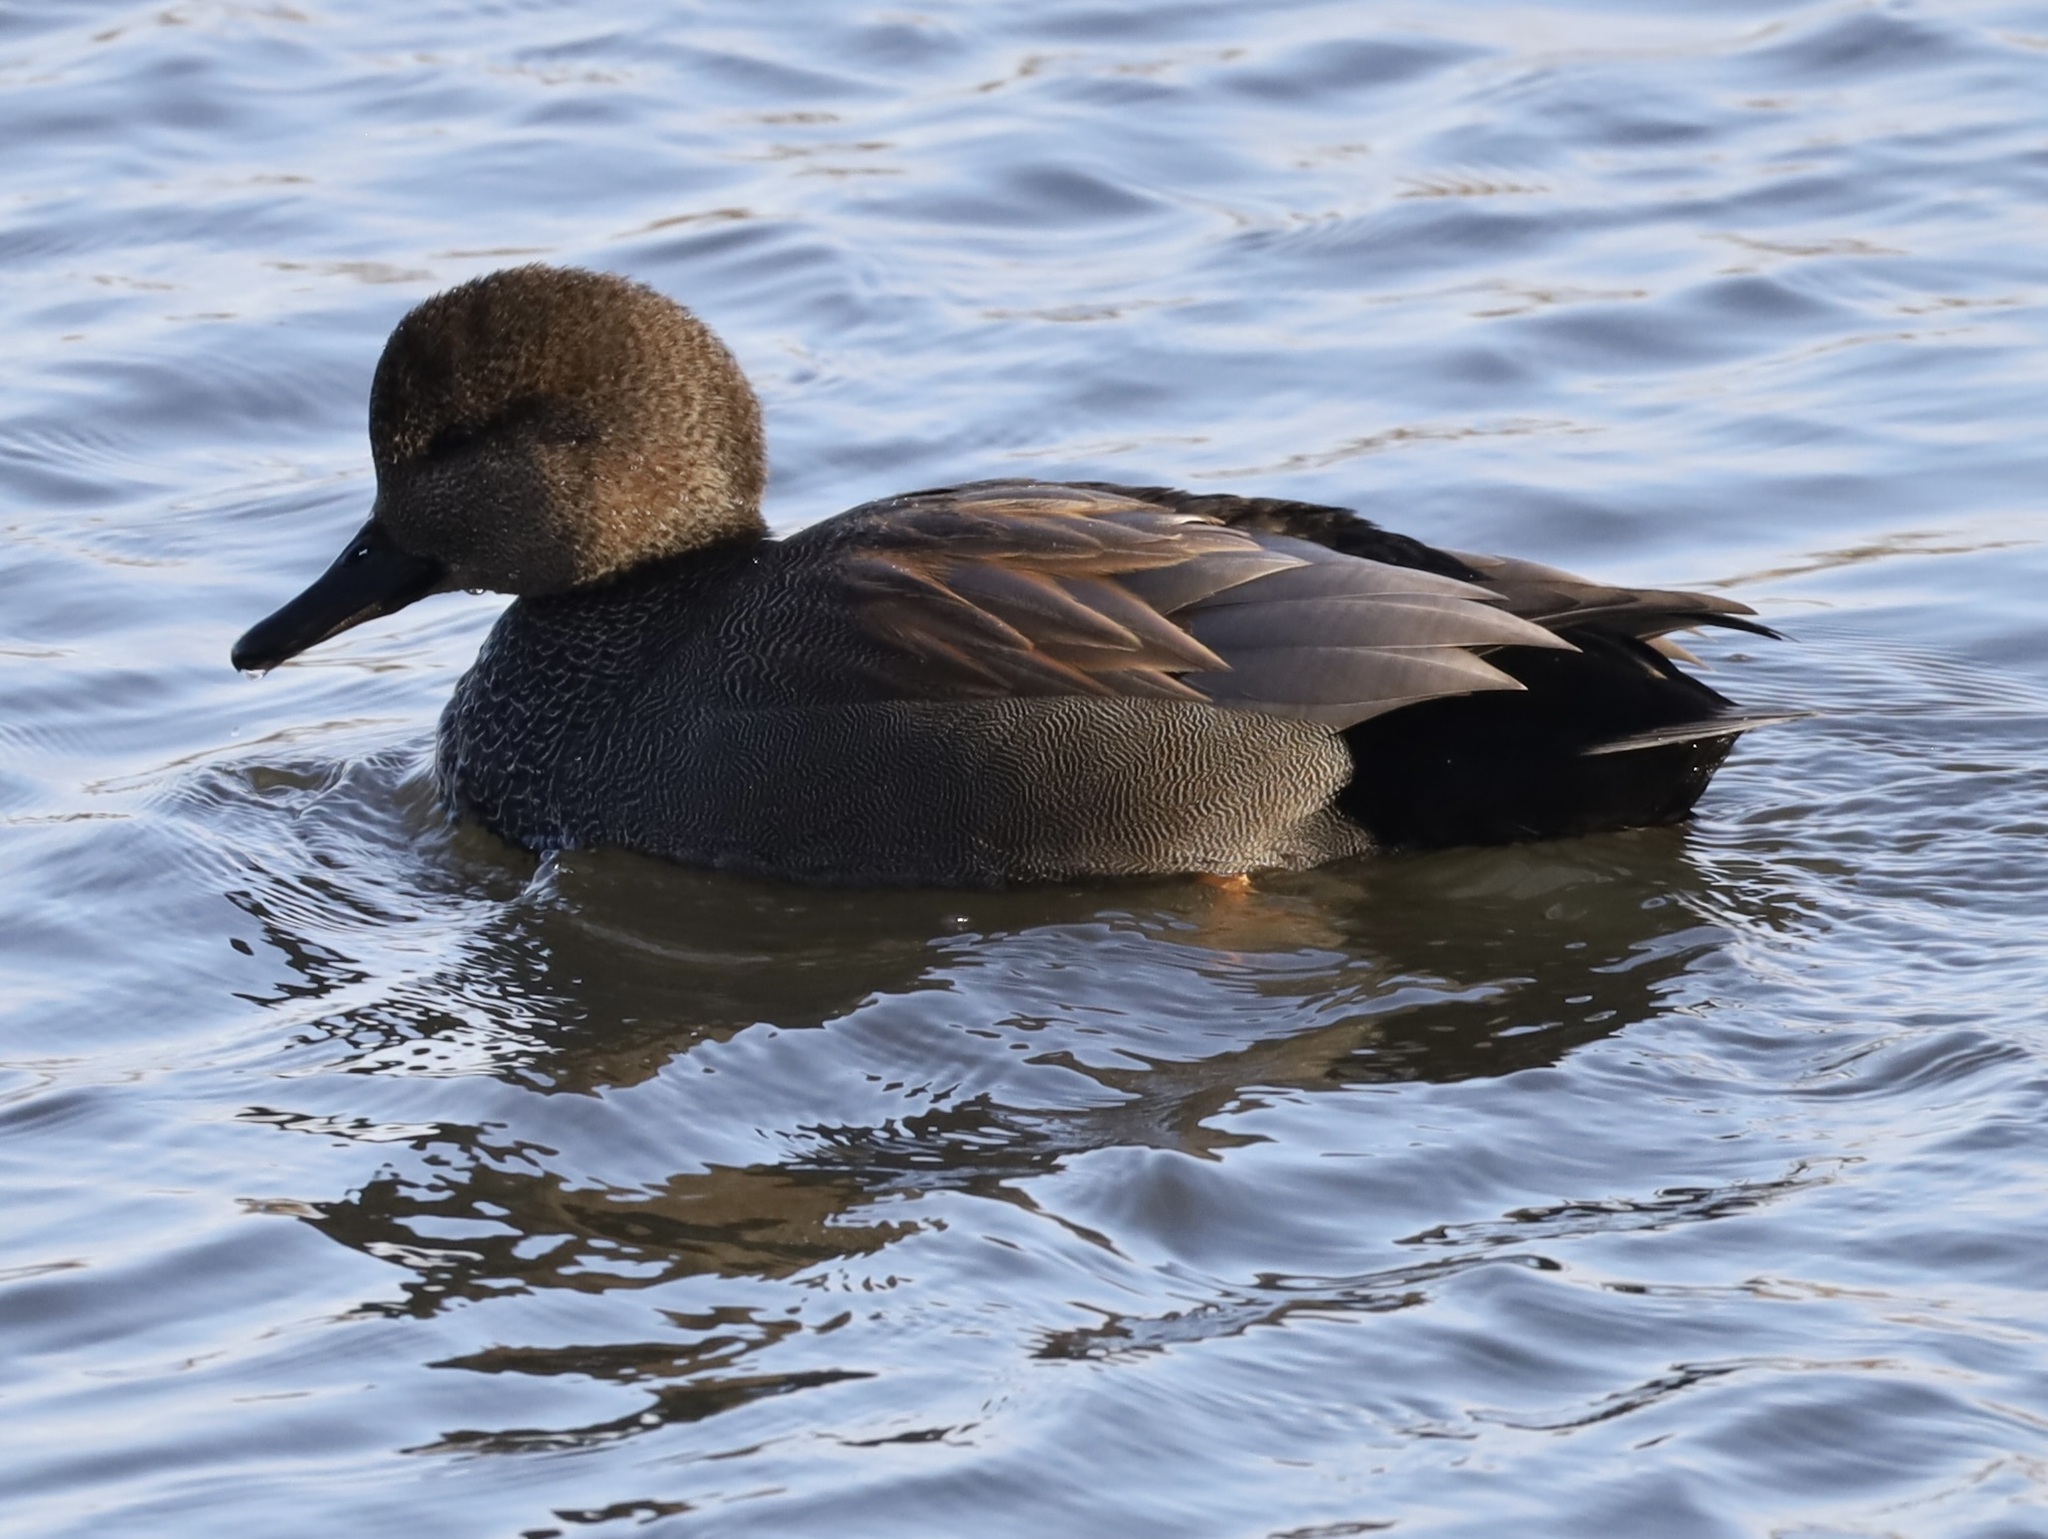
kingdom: Animalia
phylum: Chordata
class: Aves
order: Anseriformes
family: Anatidae
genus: Mareca
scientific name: Mareca strepera
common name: Gadwall
